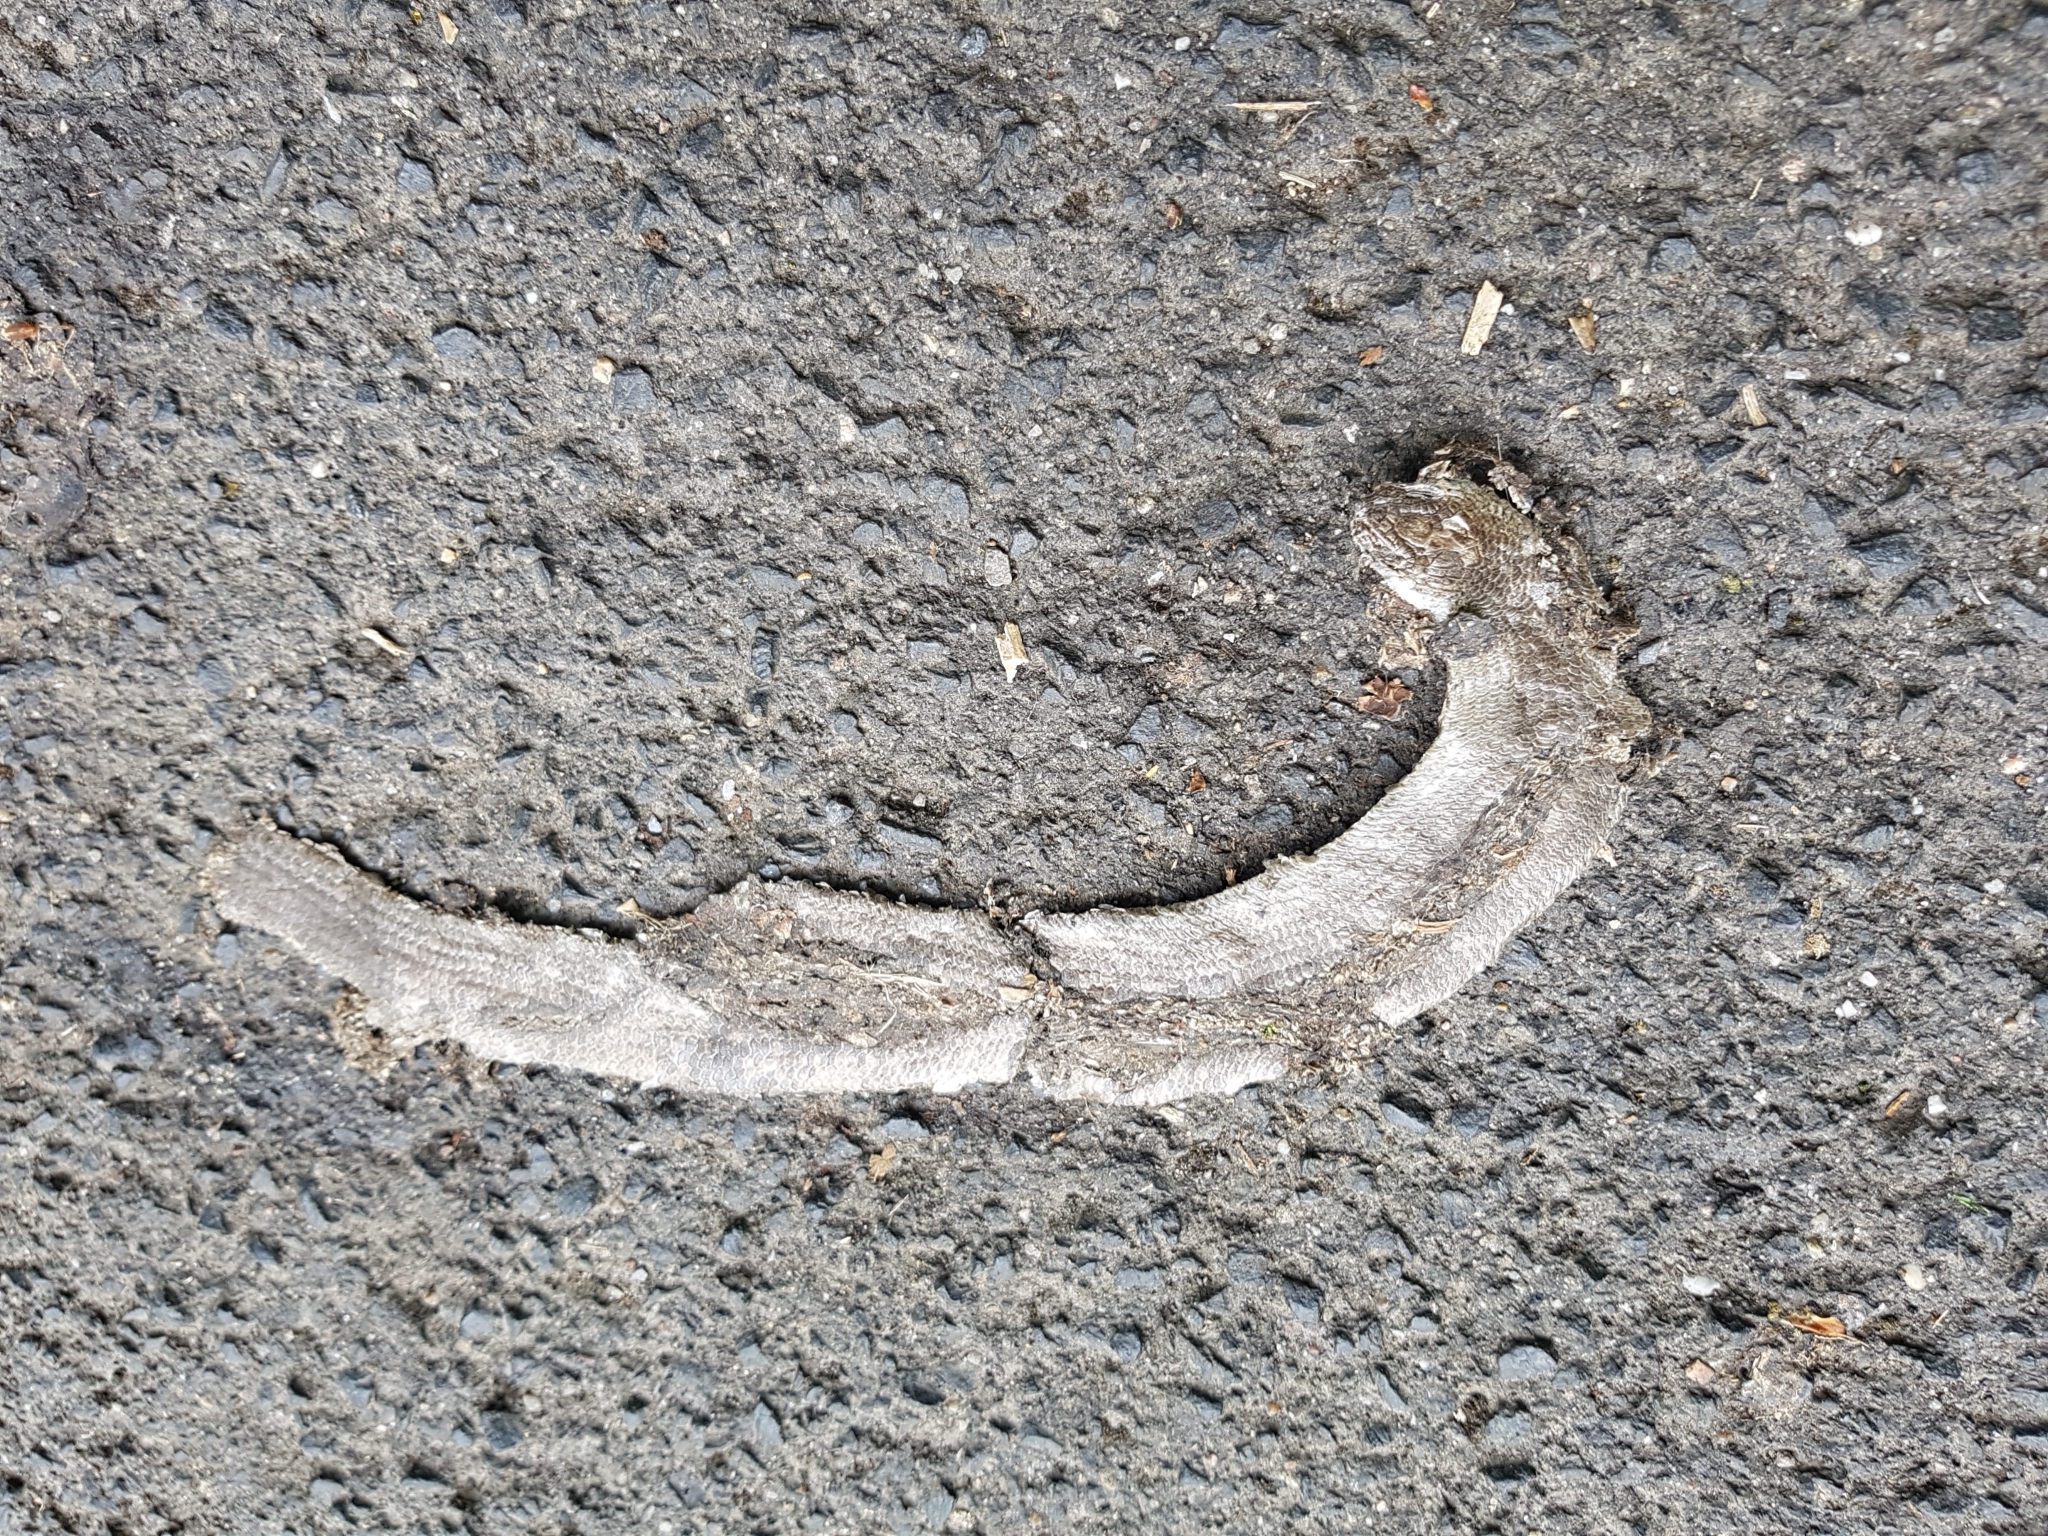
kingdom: Animalia
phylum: Chordata
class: Squamata
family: Anguidae
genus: Anguis
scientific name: Anguis fragilis
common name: Slow worm
